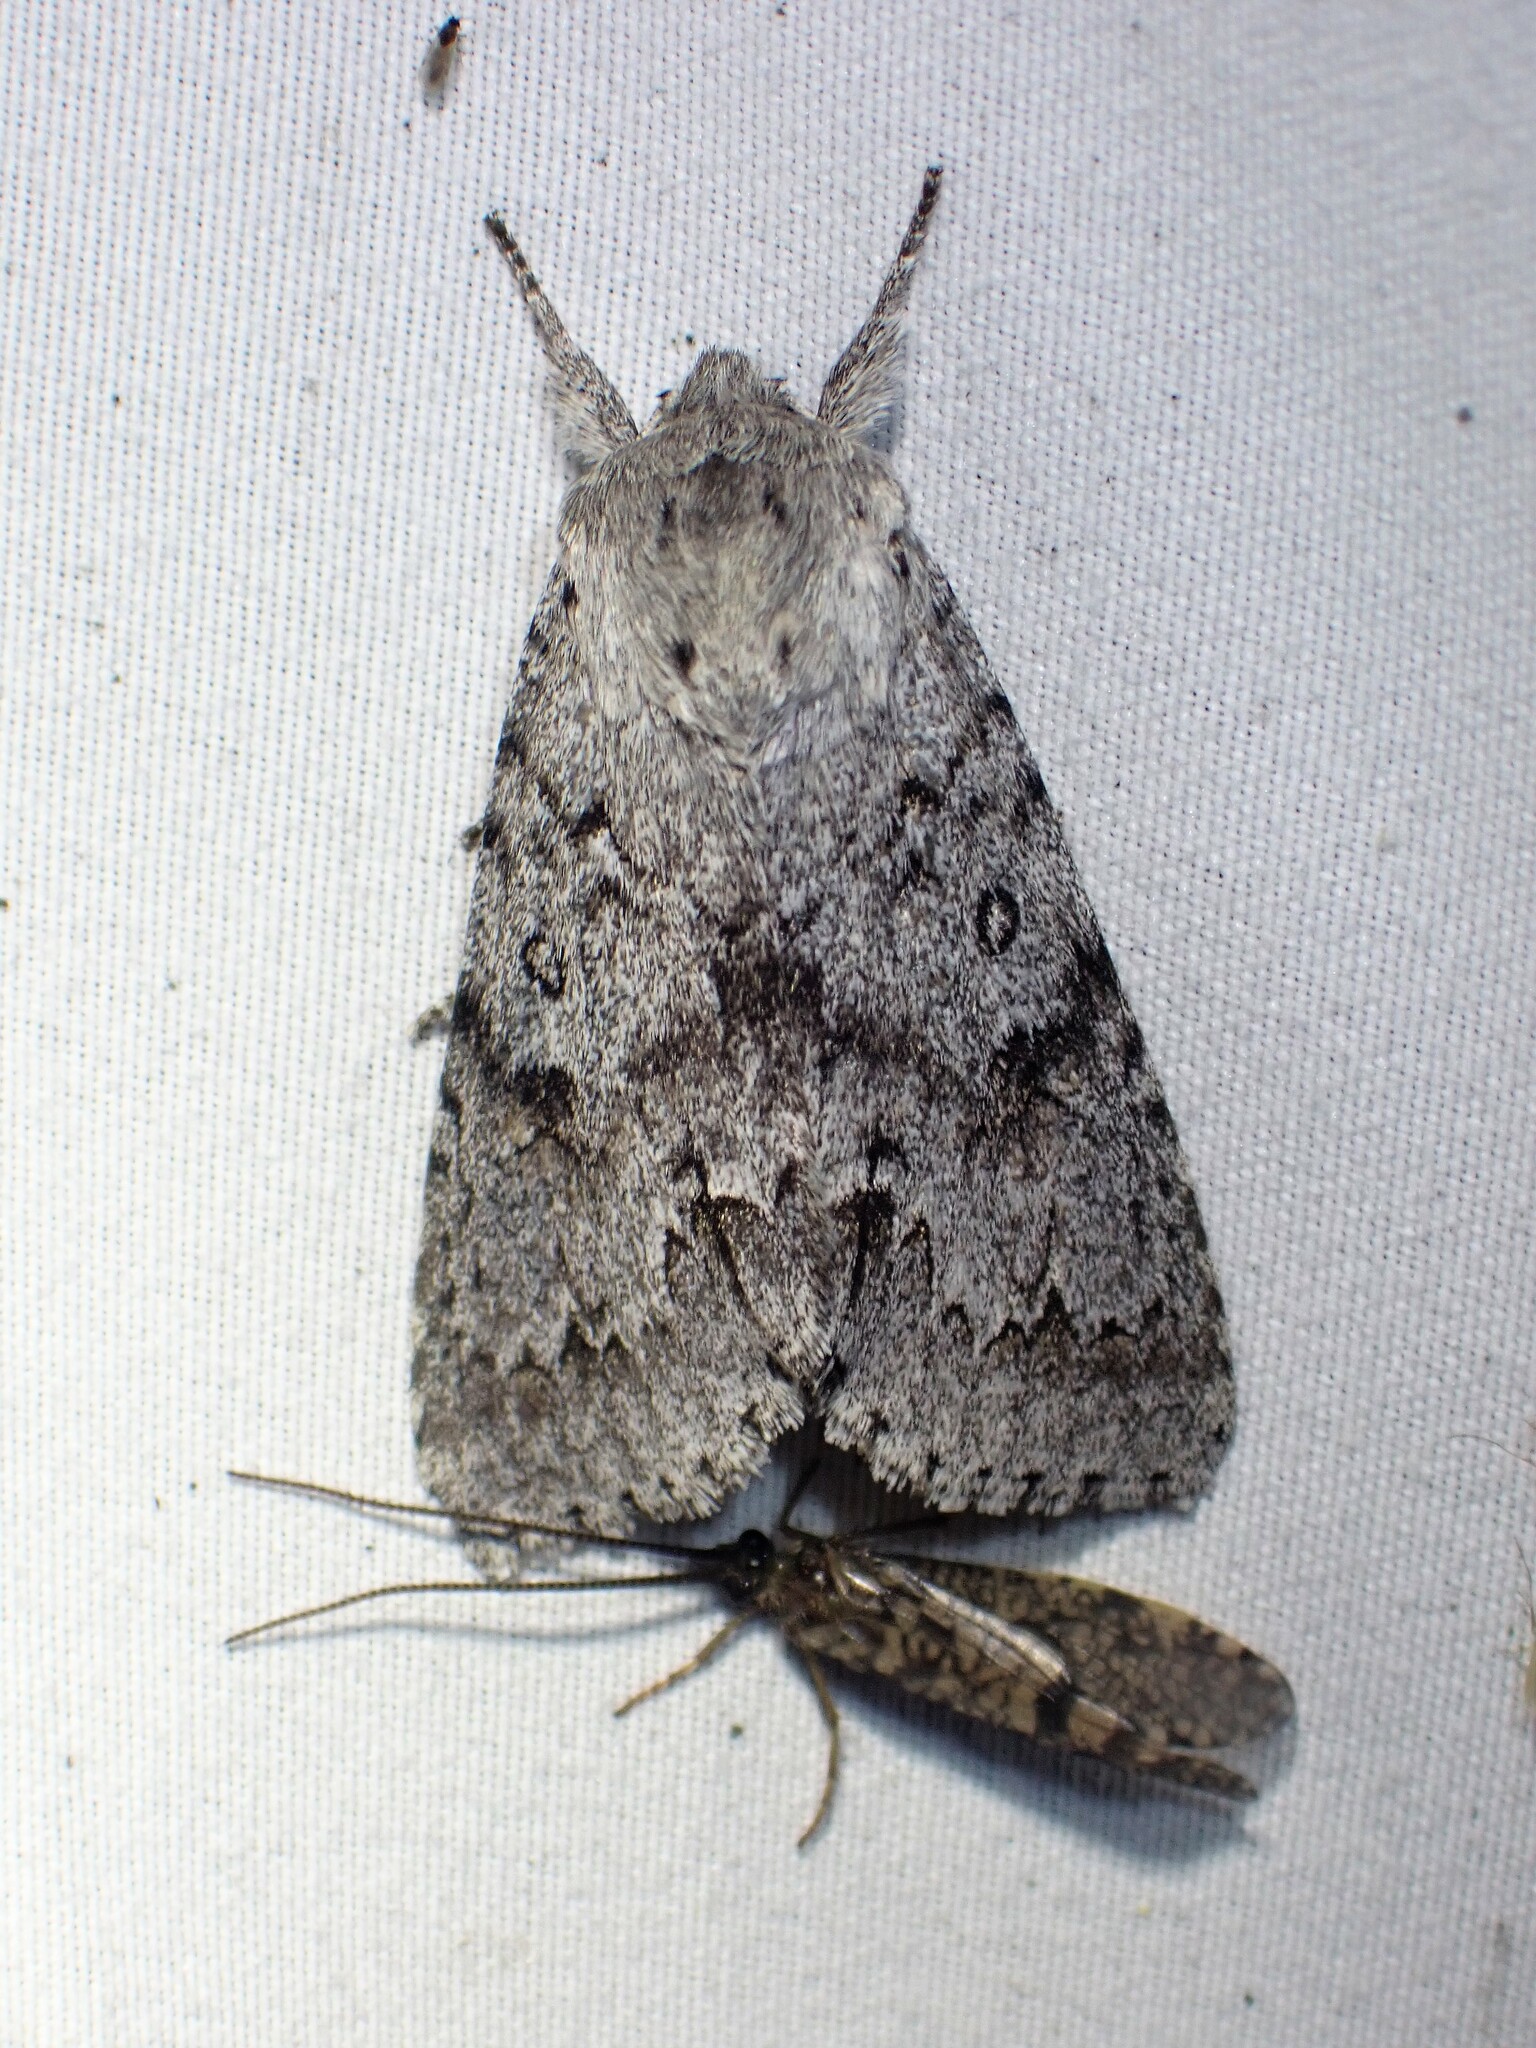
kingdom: Animalia
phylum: Arthropoda
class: Insecta
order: Lepidoptera
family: Noctuidae
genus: Acronicta
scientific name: Acronicta insita
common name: Large gray dagger
